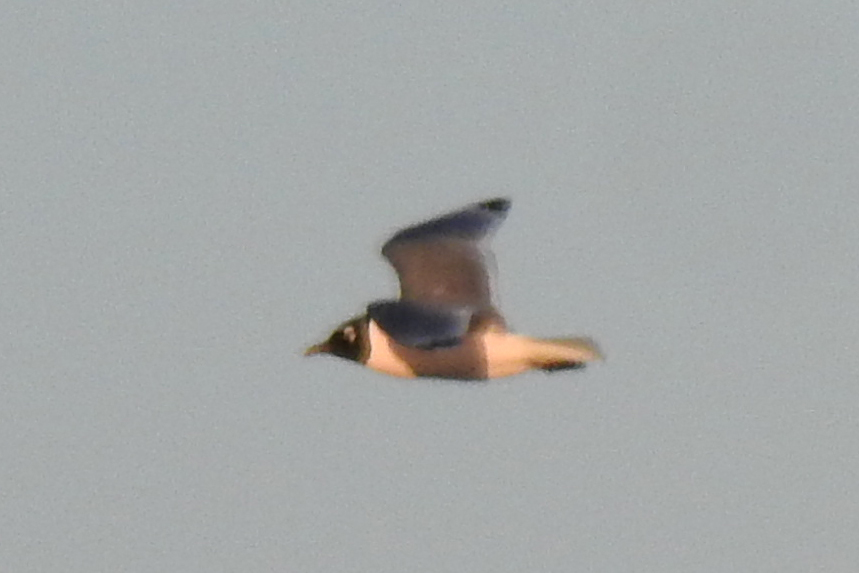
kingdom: Animalia
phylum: Chordata
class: Aves
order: Charadriiformes
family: Laridae
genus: Leucophaeus
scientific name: Leucophaeus pipixcan
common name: Franklin's gull
